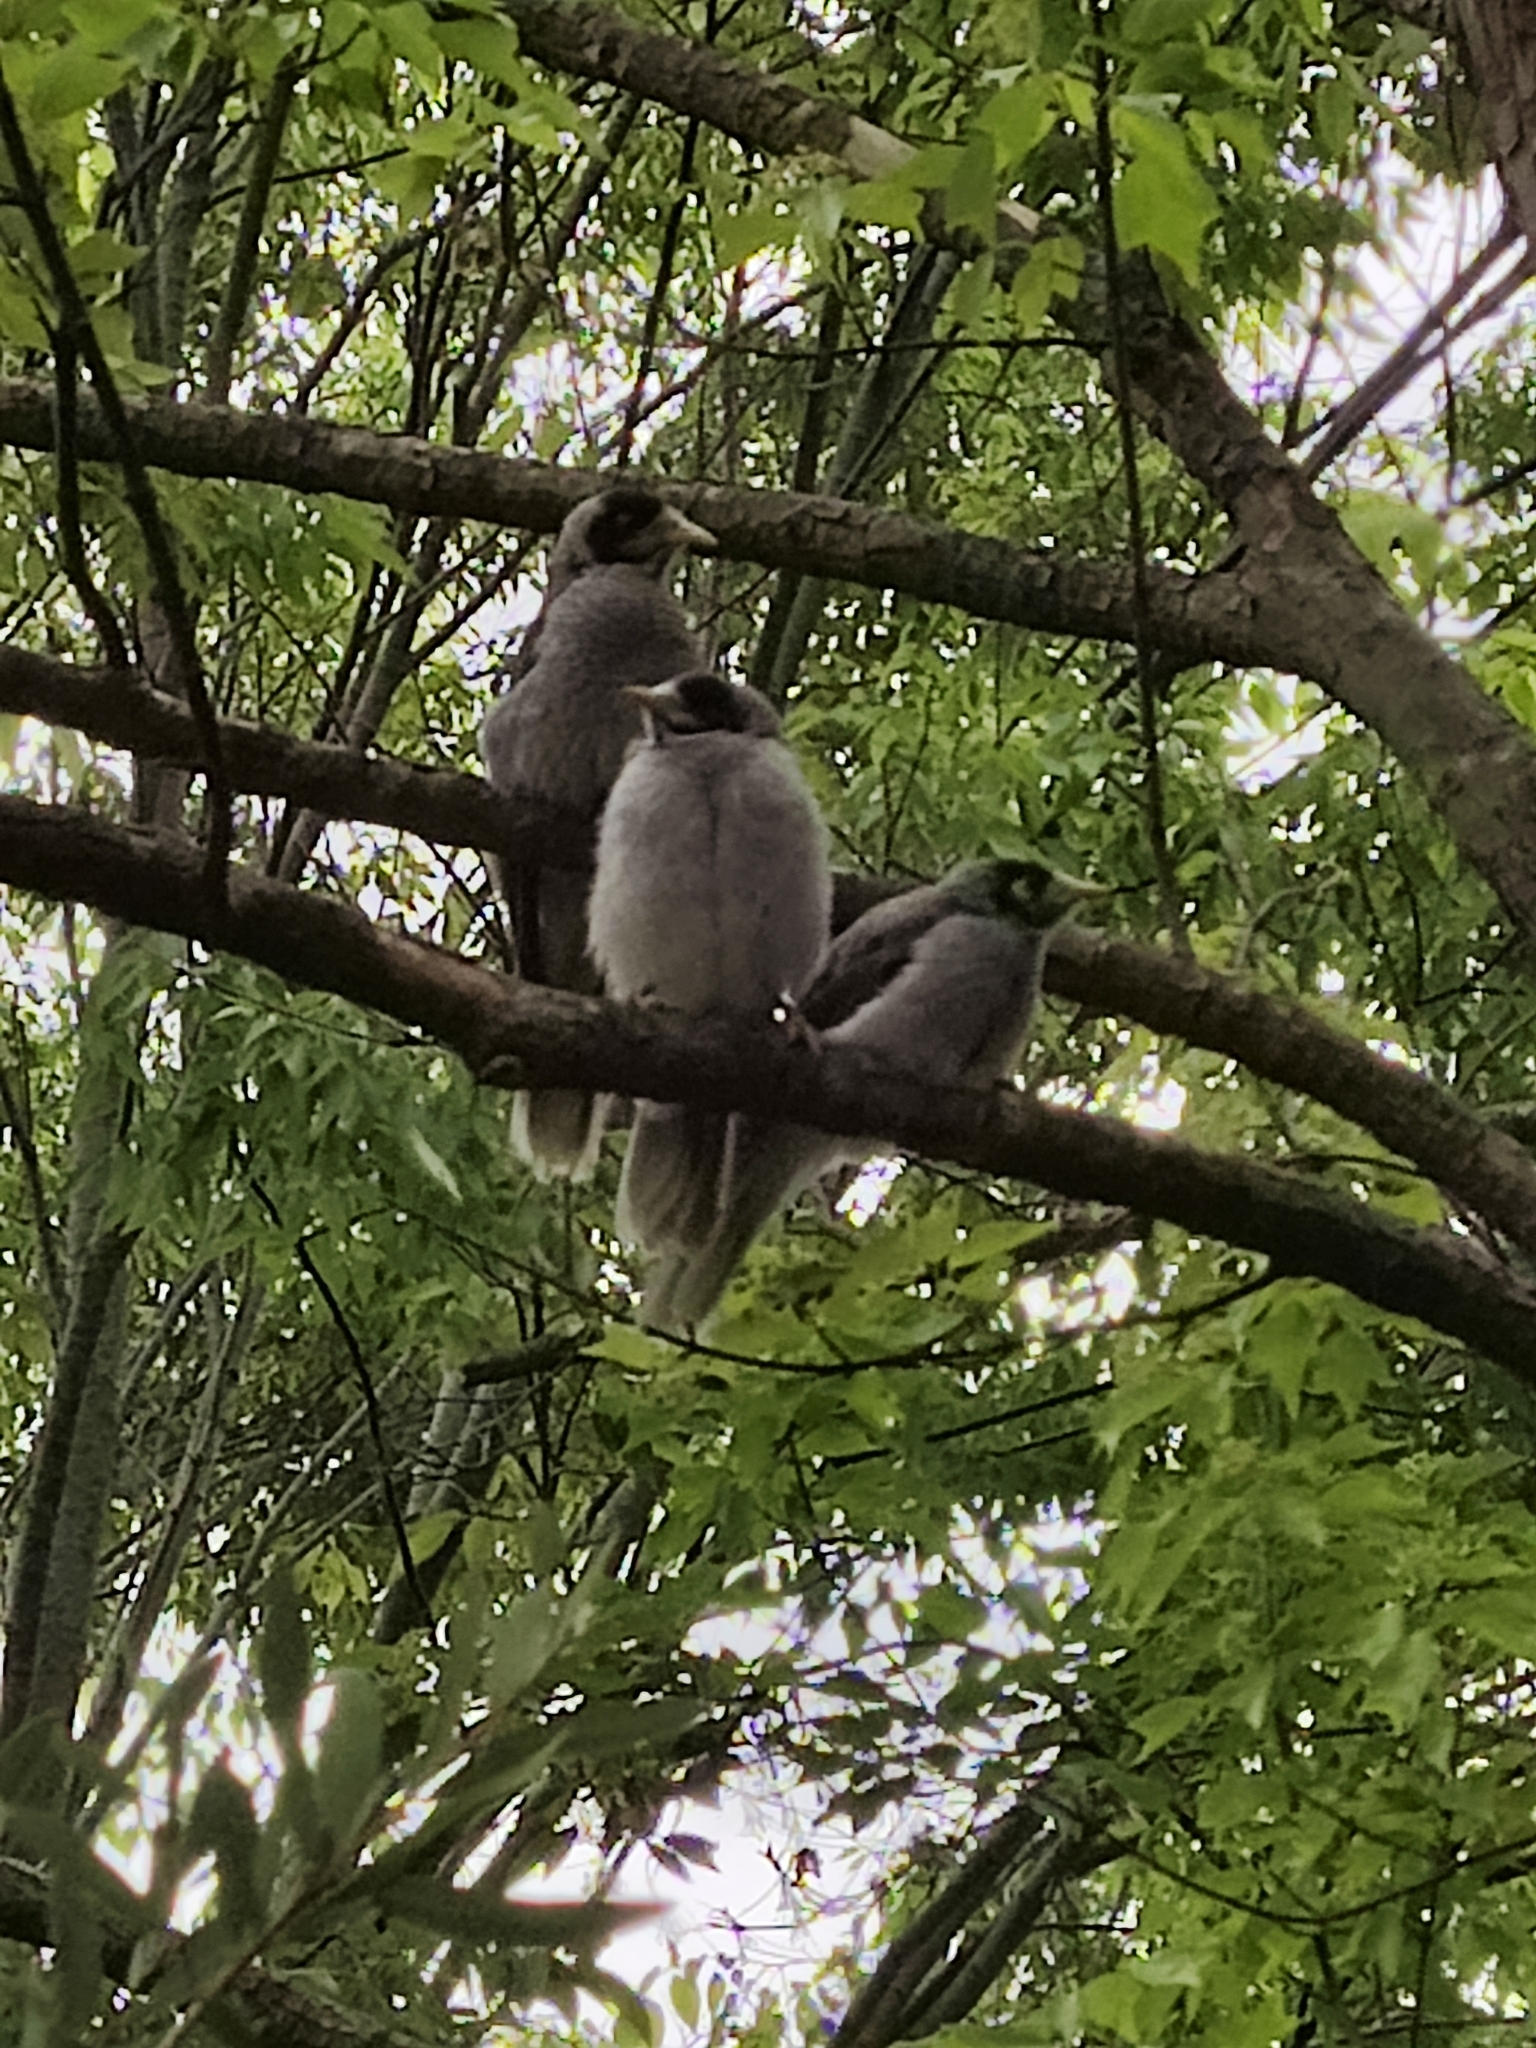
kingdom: Animalia
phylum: Chordata
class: Aves
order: Passeriformes
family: Meliphagidae
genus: Manorina
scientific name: Manorina melanocephala
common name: Noisy miner
